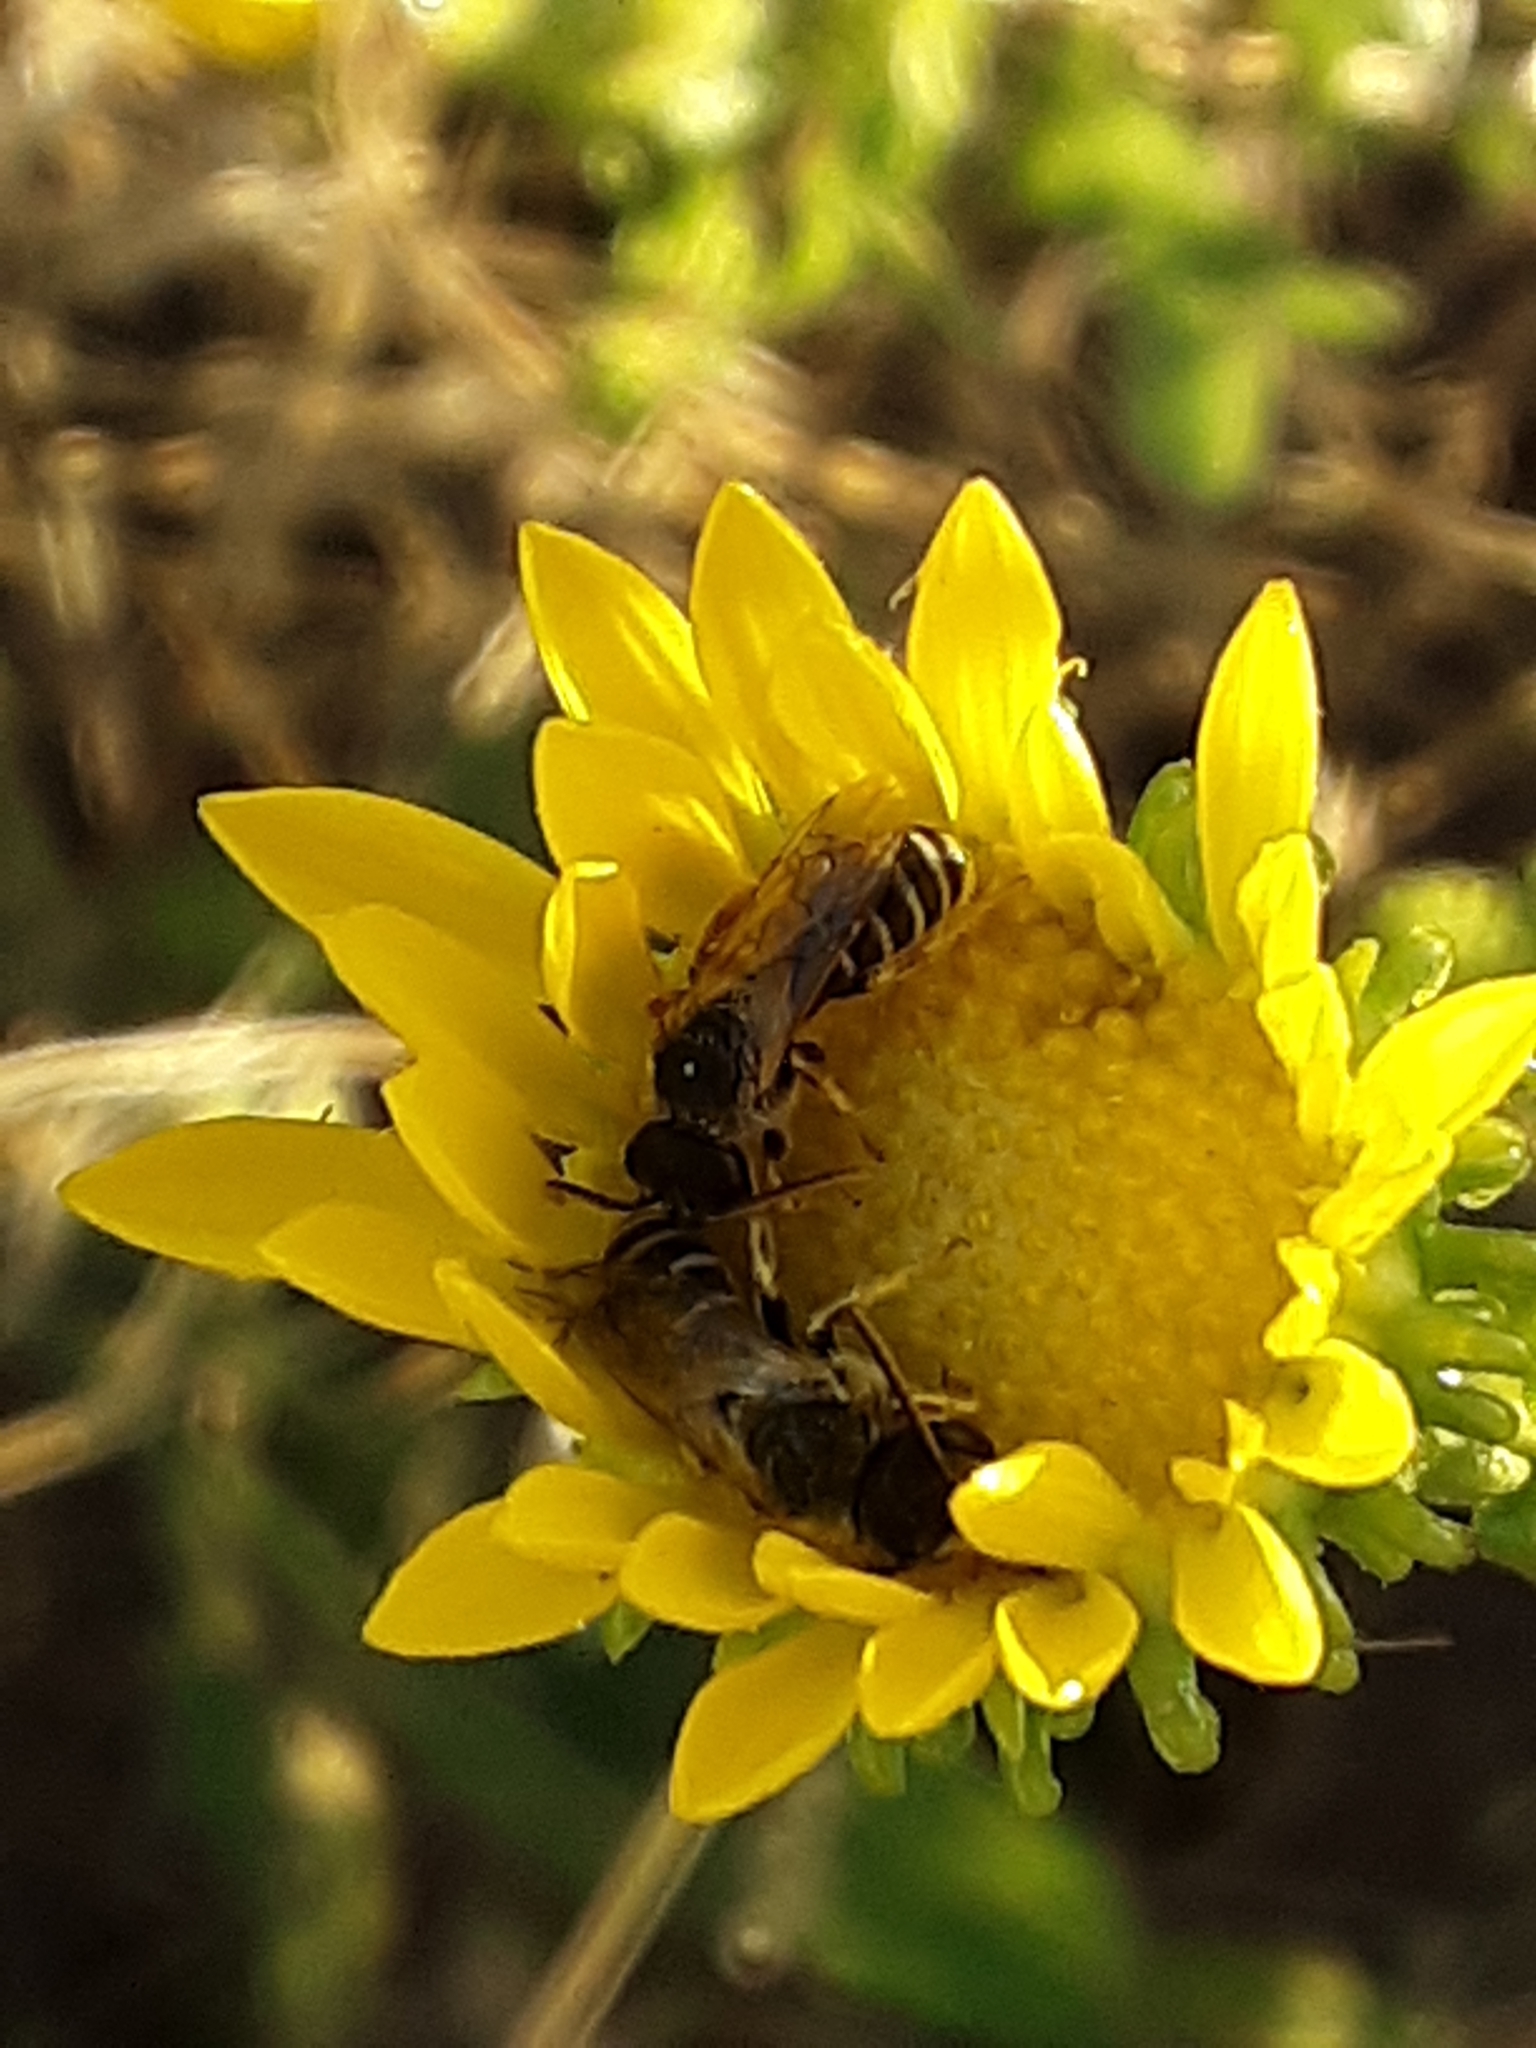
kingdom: Animalia
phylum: Arthropoda
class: Insecta
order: Hymenoptera
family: Halictidae
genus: Halictus
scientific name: Halictus ligatus
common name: Ligated furrow bee
